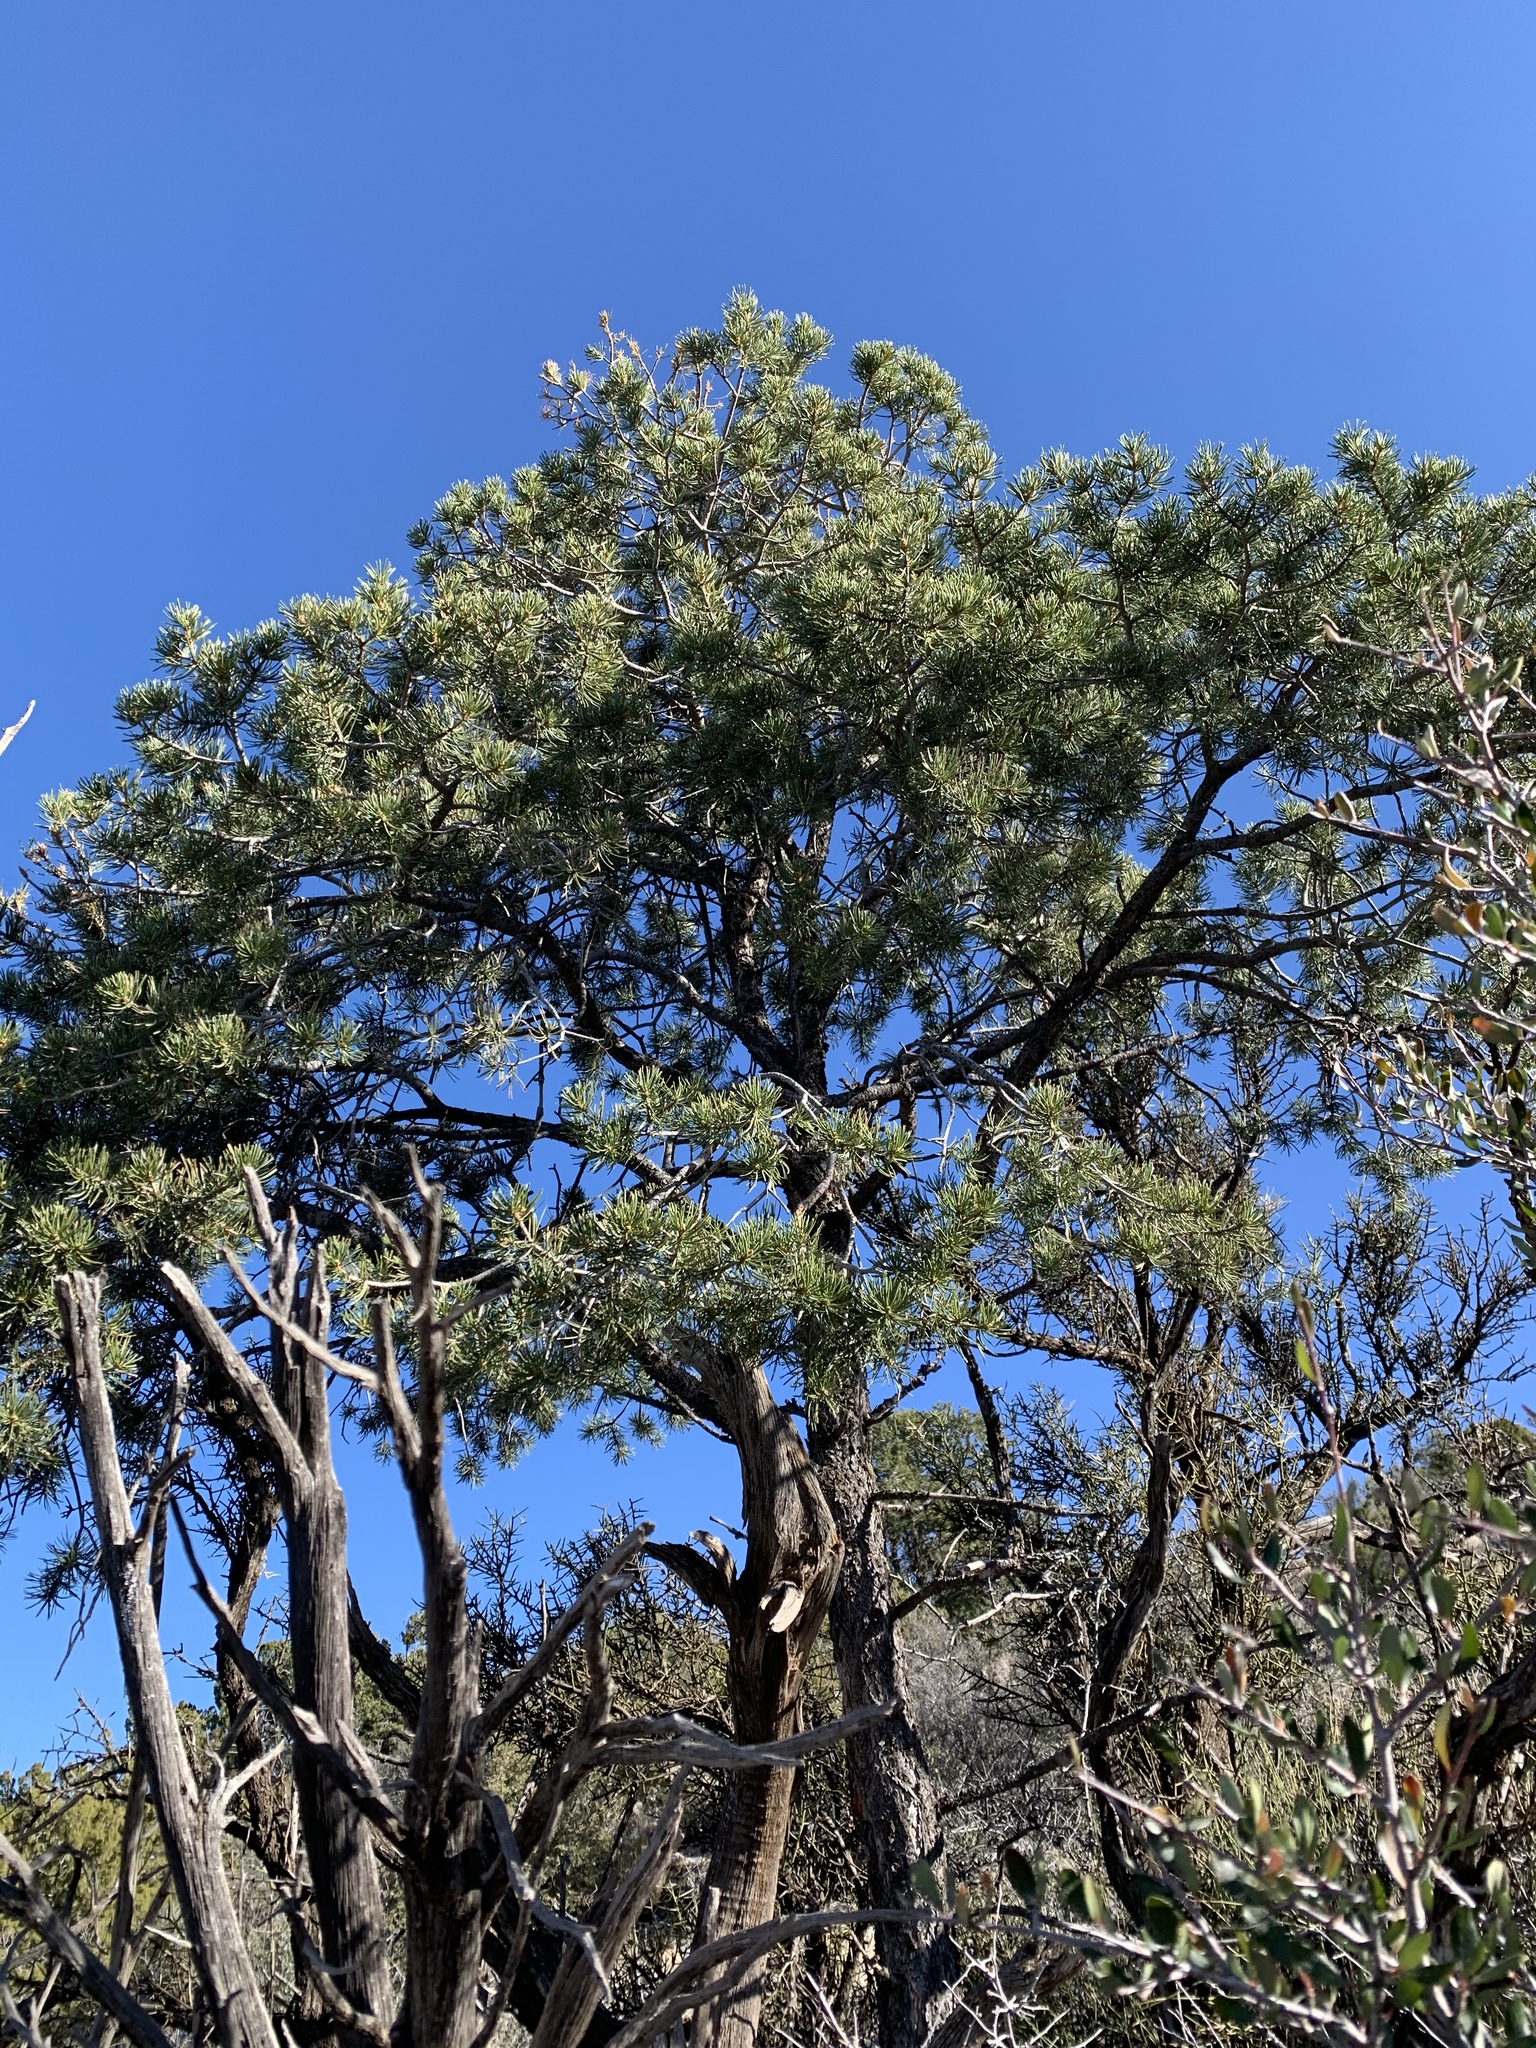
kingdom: Plantae
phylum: Tracheophyta
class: Pinopsida
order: Pinales
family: Pinaceae
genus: Pinus
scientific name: Pinus edulis
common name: Colorado pinyon
